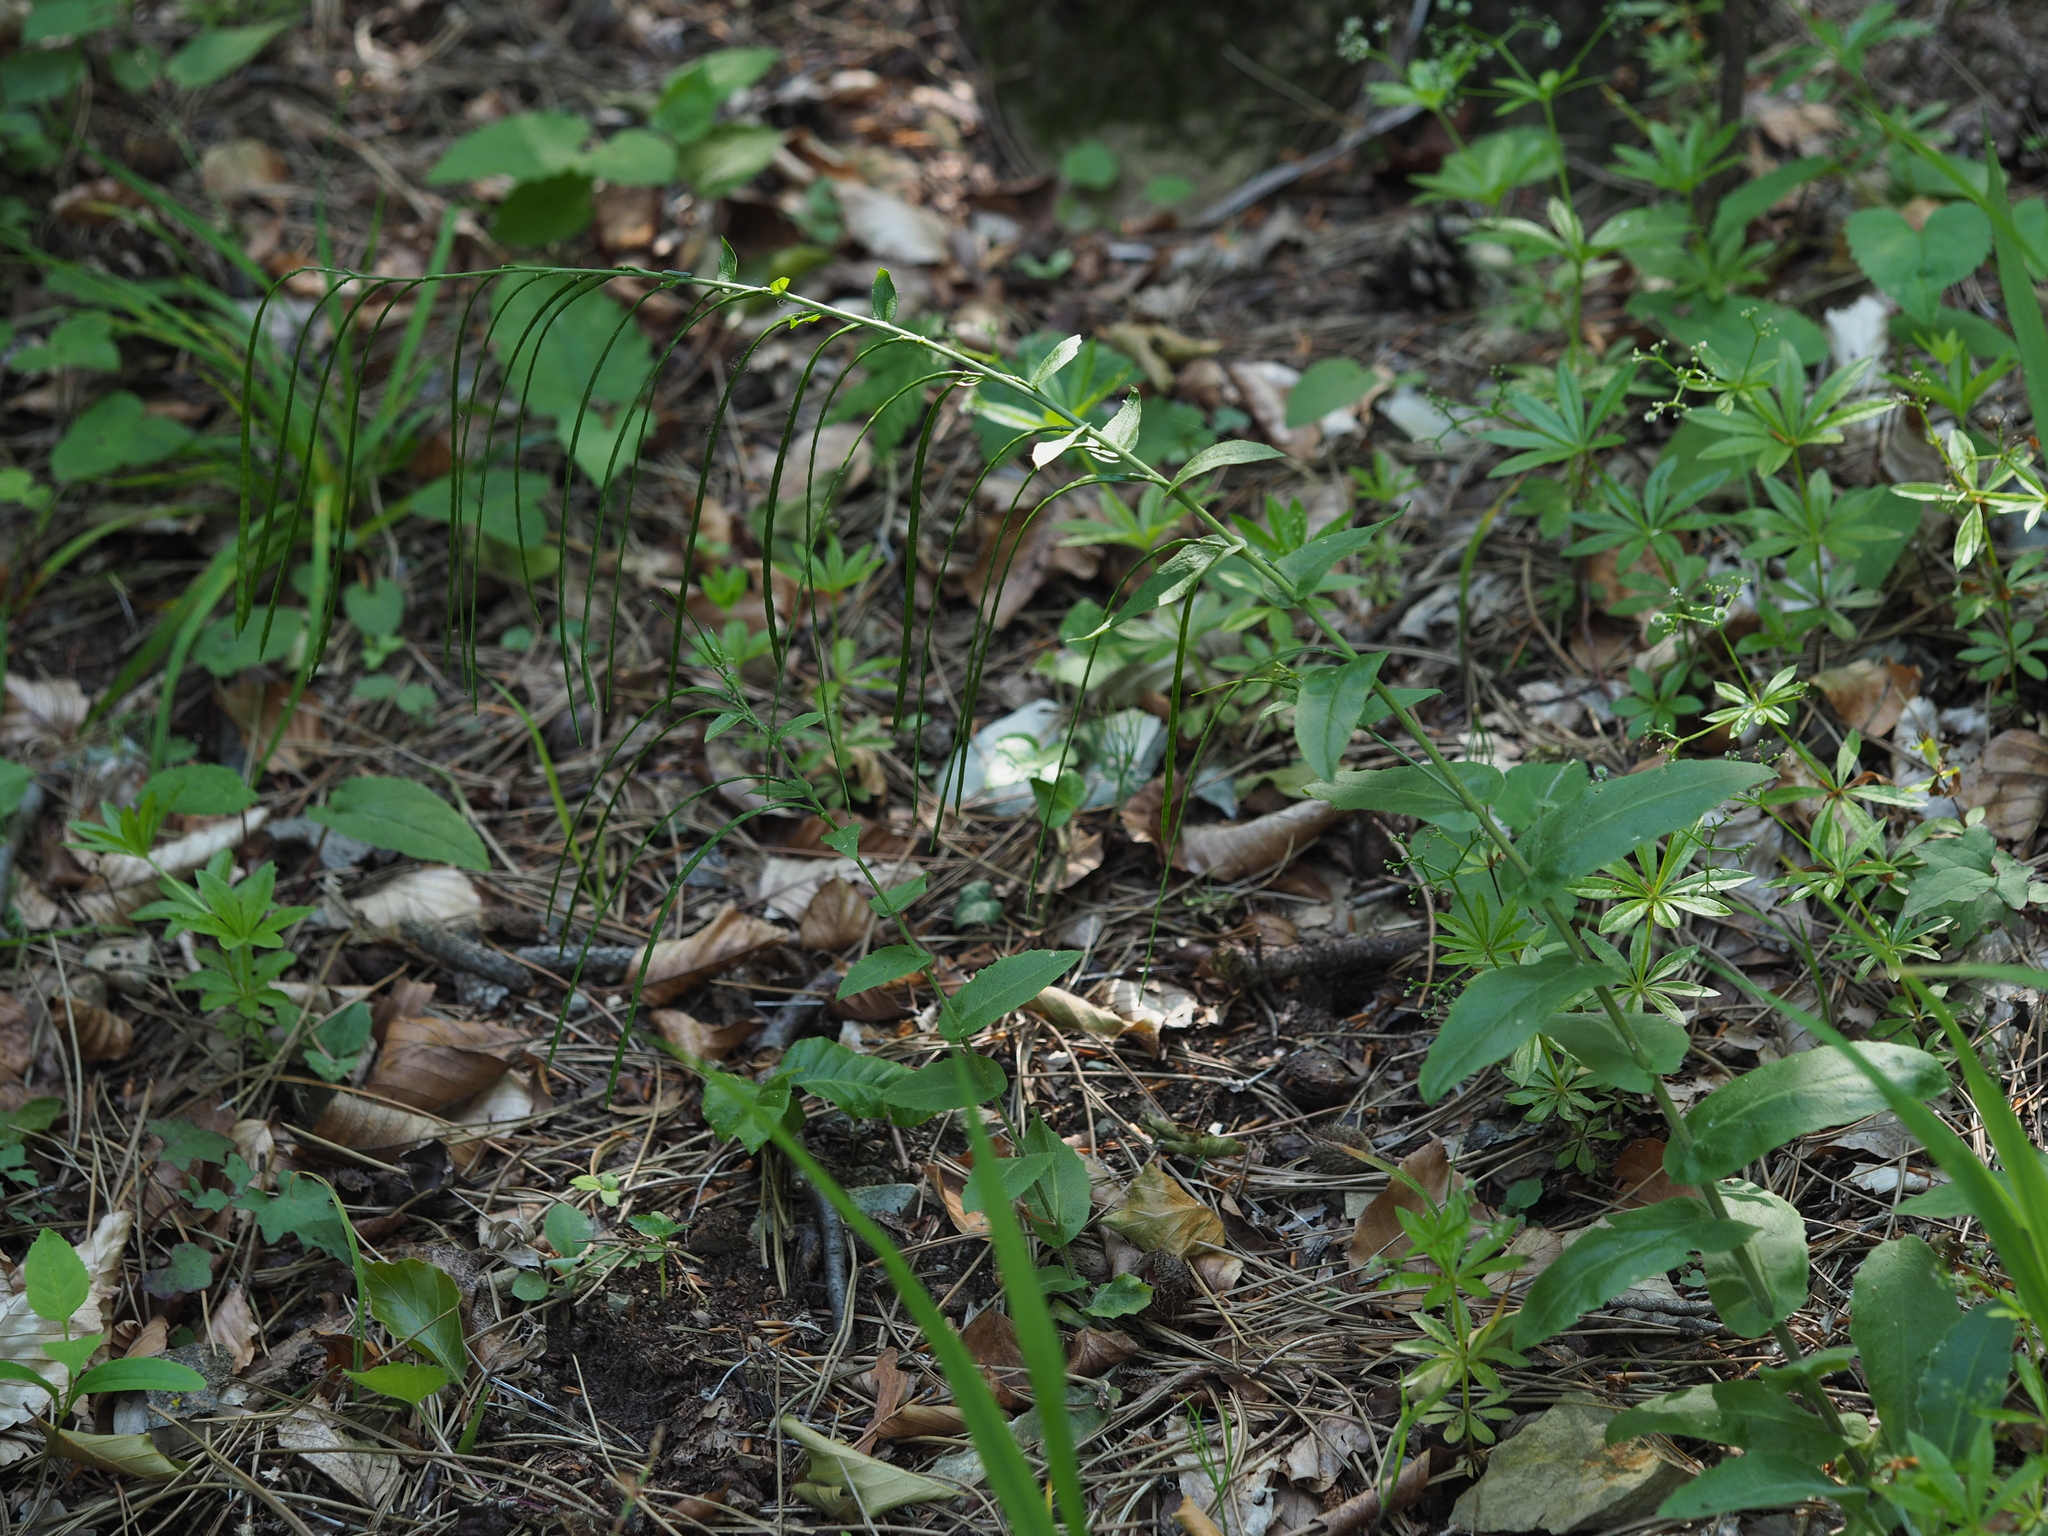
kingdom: Plantae
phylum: Tracheophyta
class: Magnoliopsida
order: Brassicales
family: Brassicaceae
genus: Pseudoturritis
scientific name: Pseudoturritis turrita
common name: Tower cress
